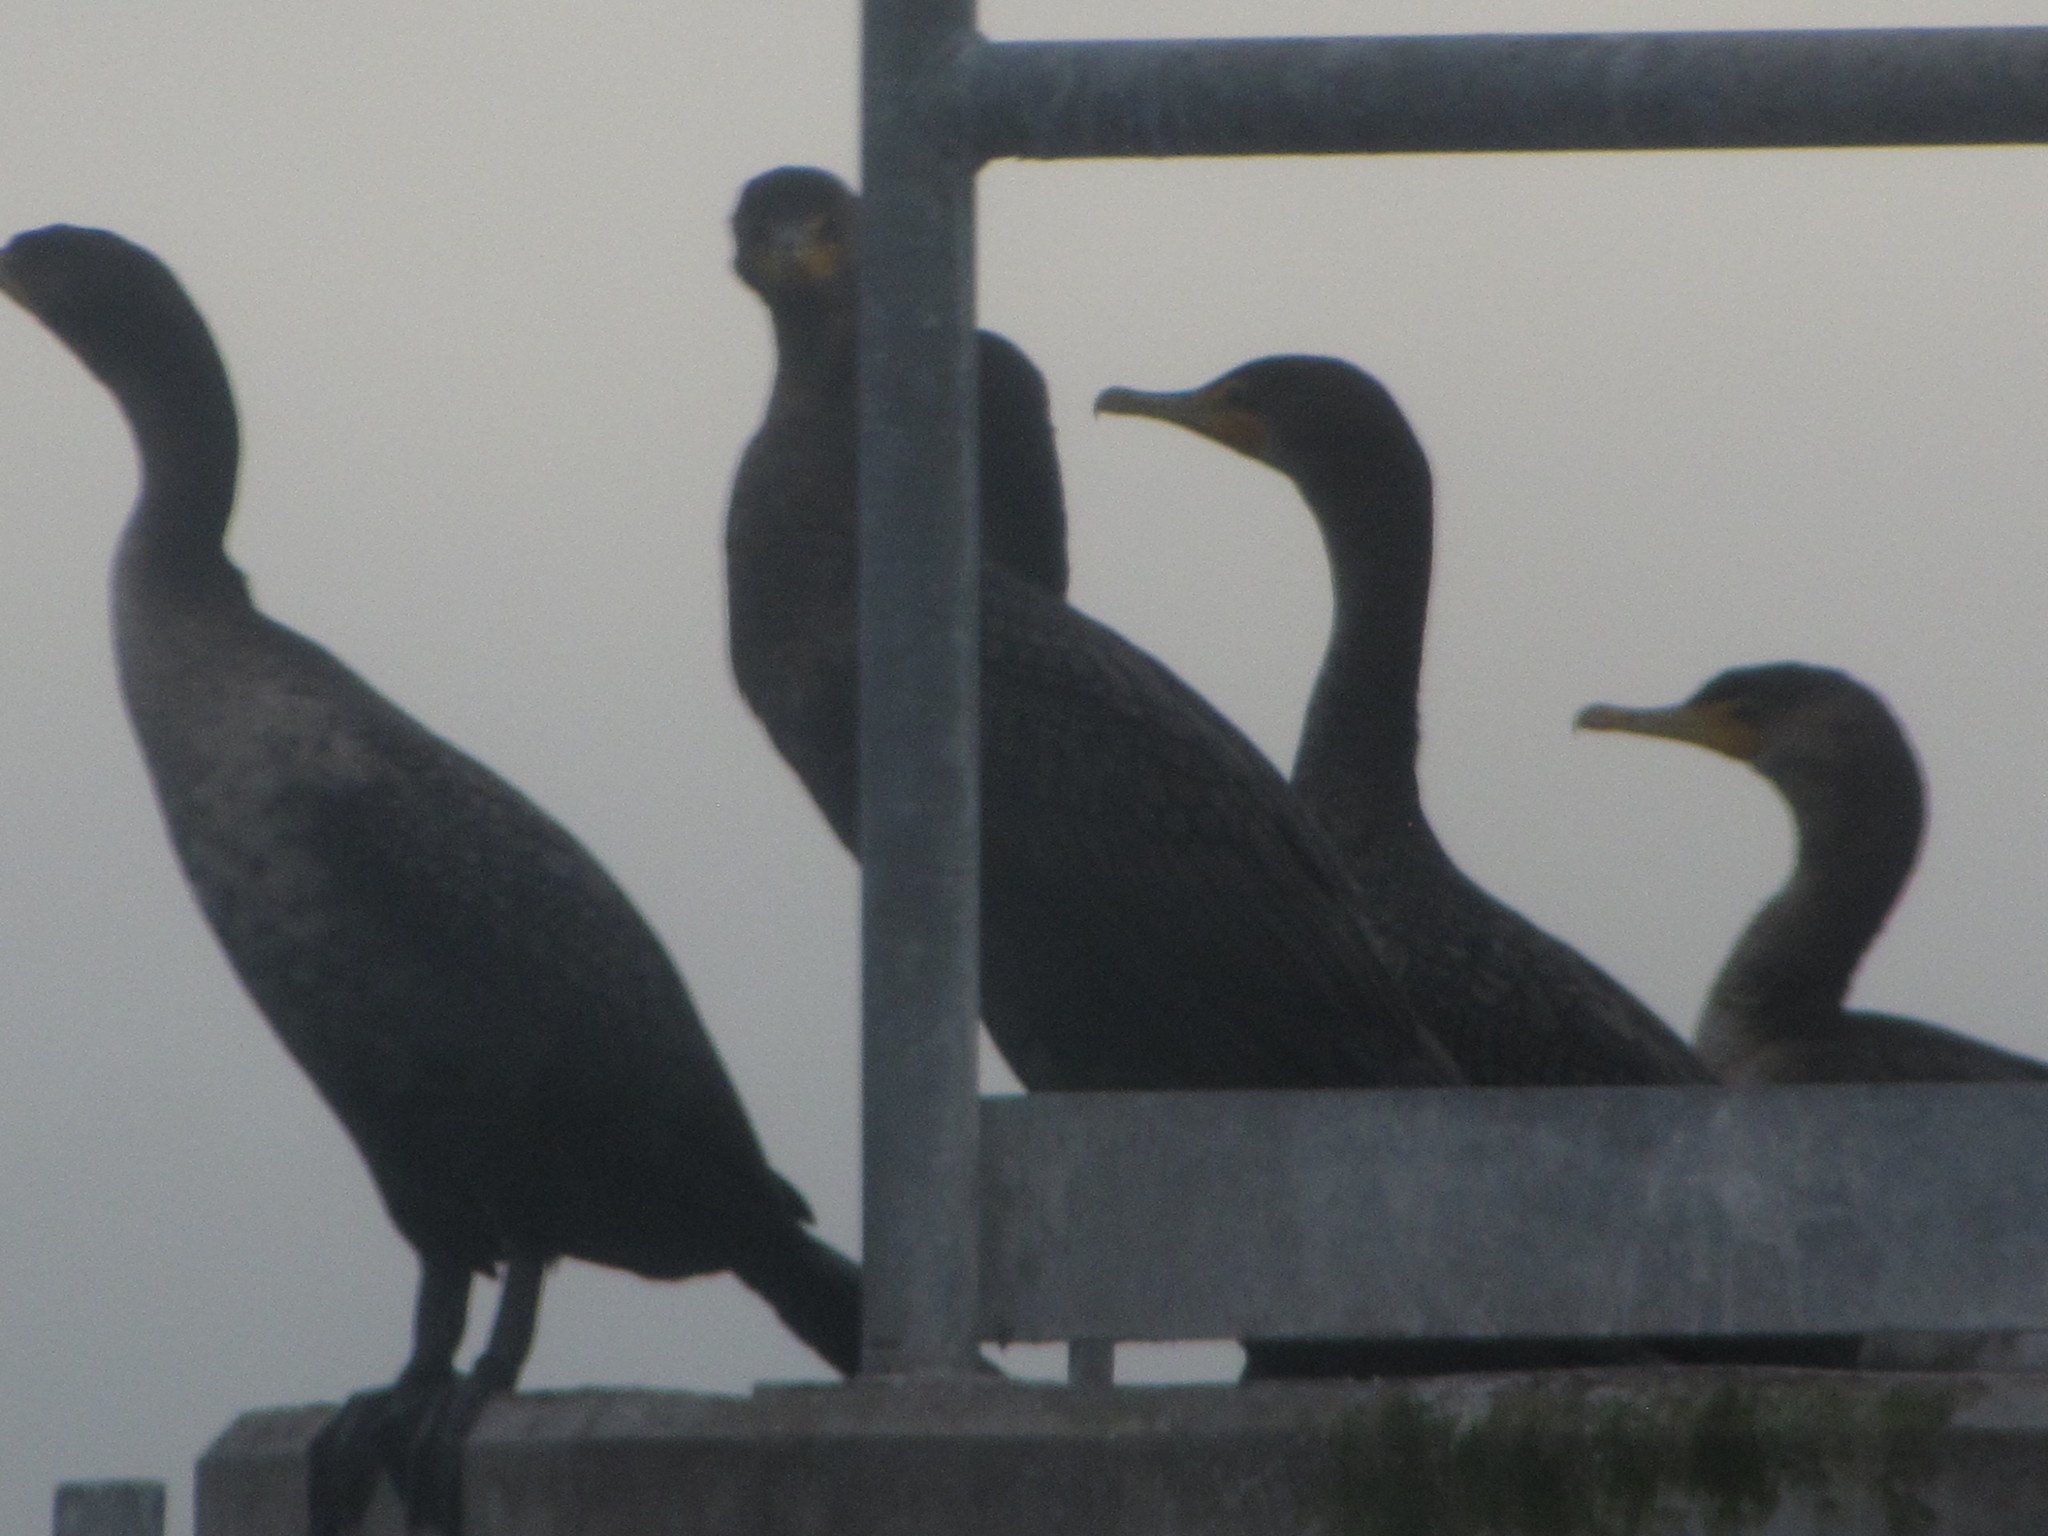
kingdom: Animalia
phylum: Chordata
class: Aves
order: Suliformes
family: Phalacrocoracidae
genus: Phalacrocorax
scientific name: Phalacrocorax auritus
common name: Double-crested cormorant
